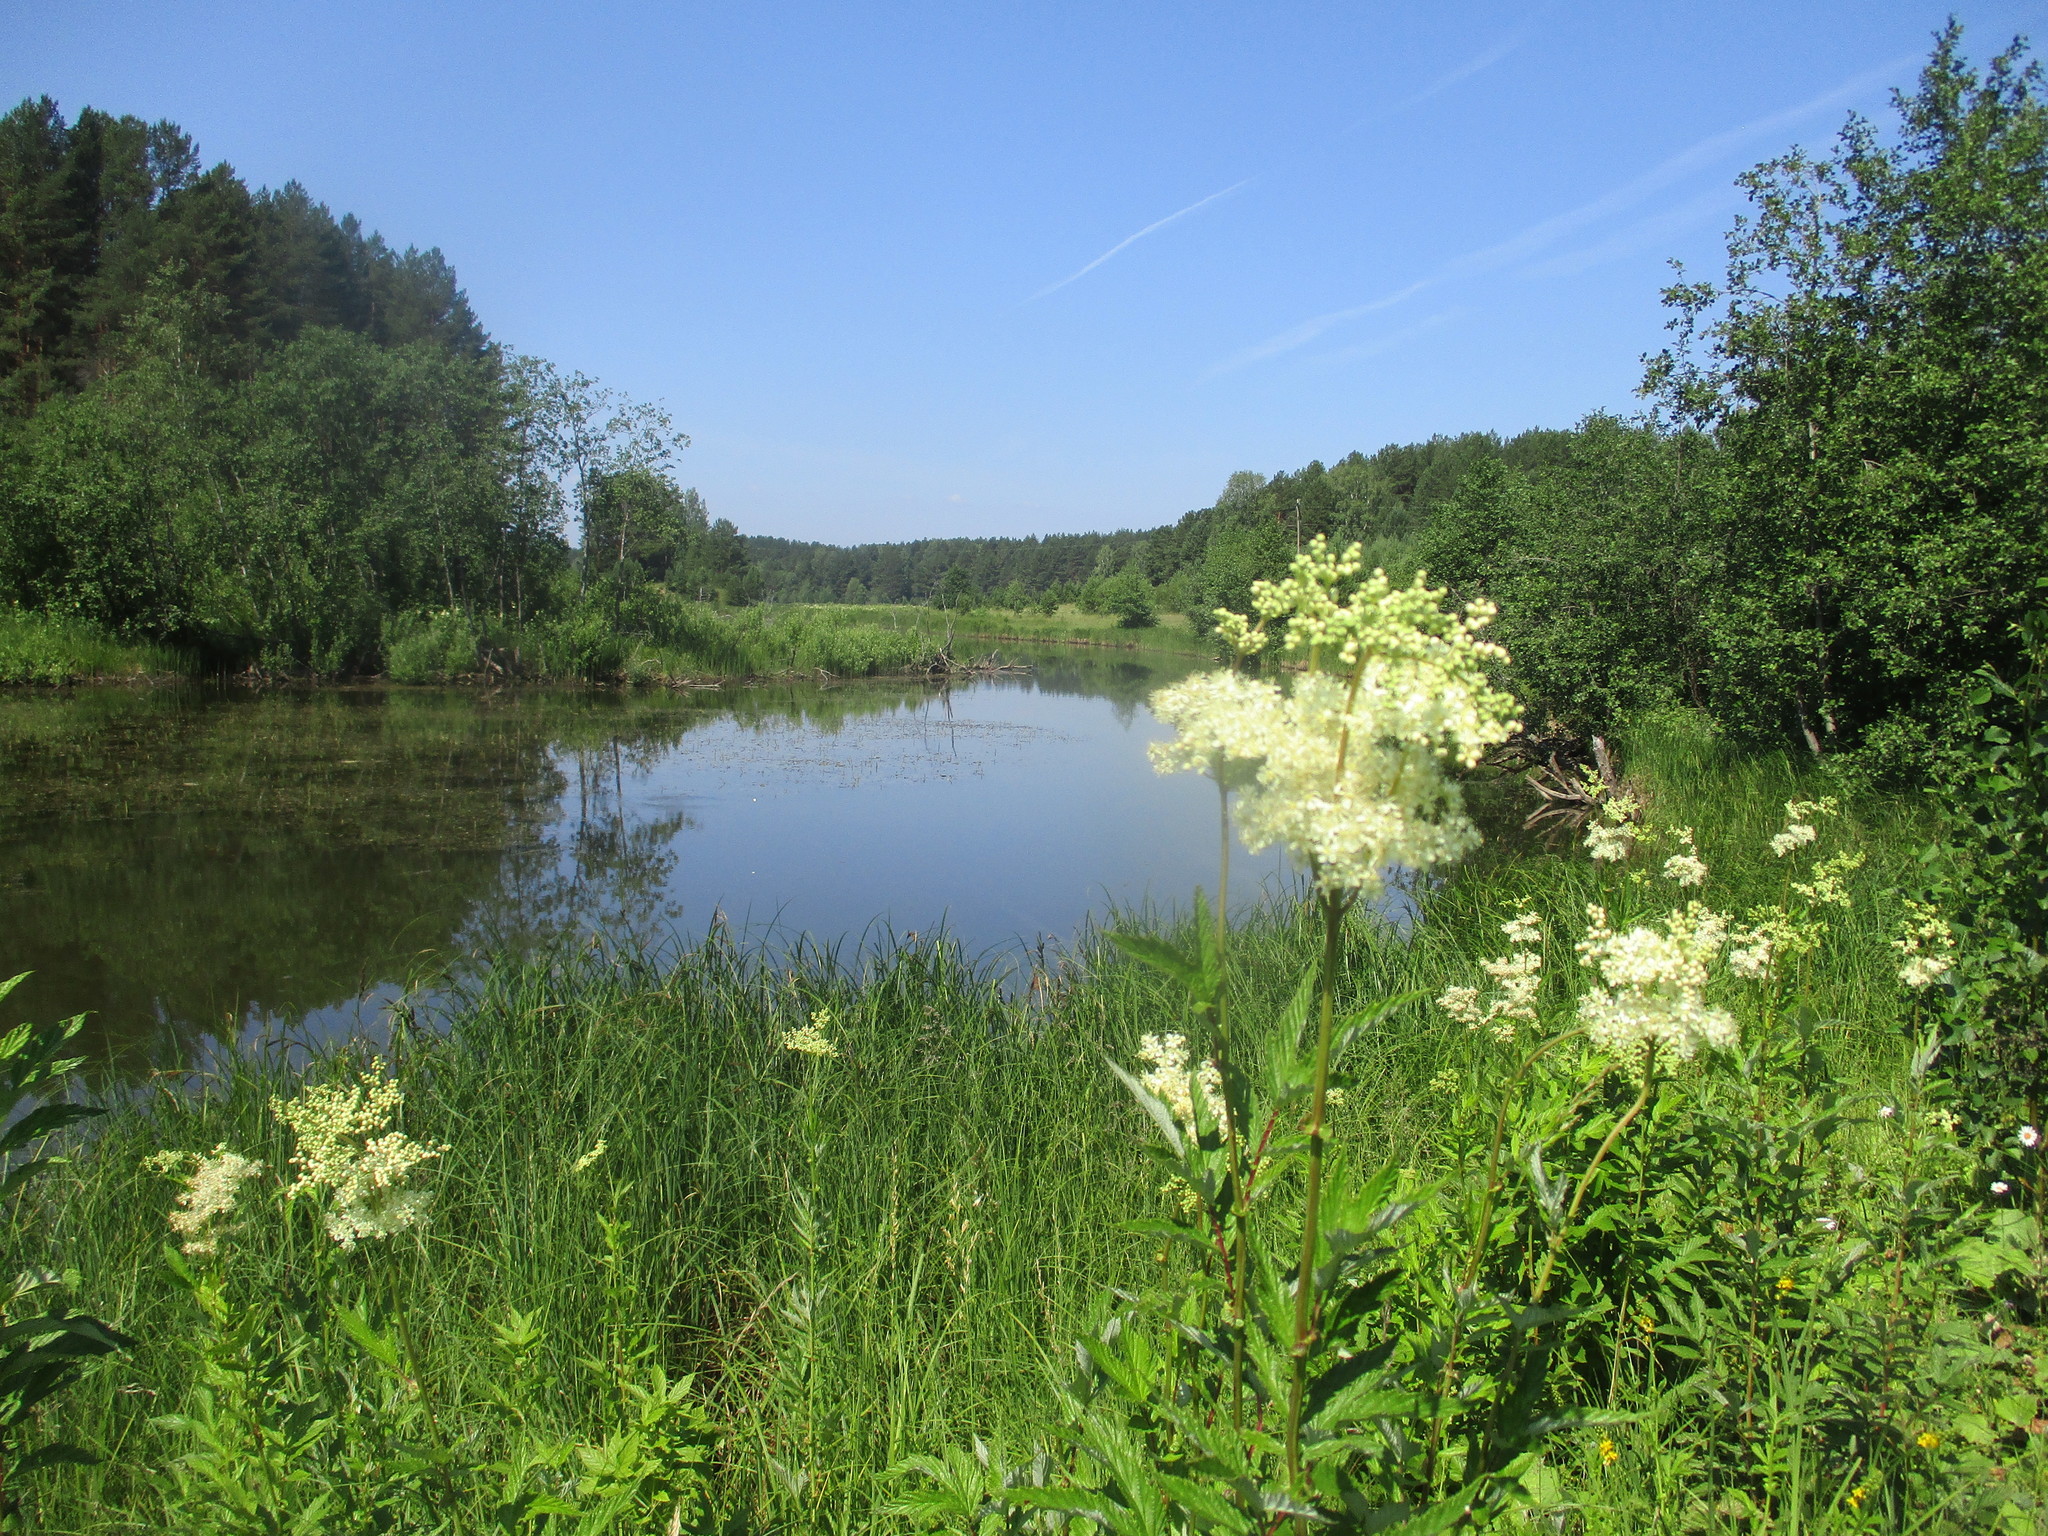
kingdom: Plantae
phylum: Tracheophyta
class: Magnoliopsida
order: Rosales
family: Rosaceae
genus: Filipendula
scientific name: Filipendula ulmaria
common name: Meadowsweet
